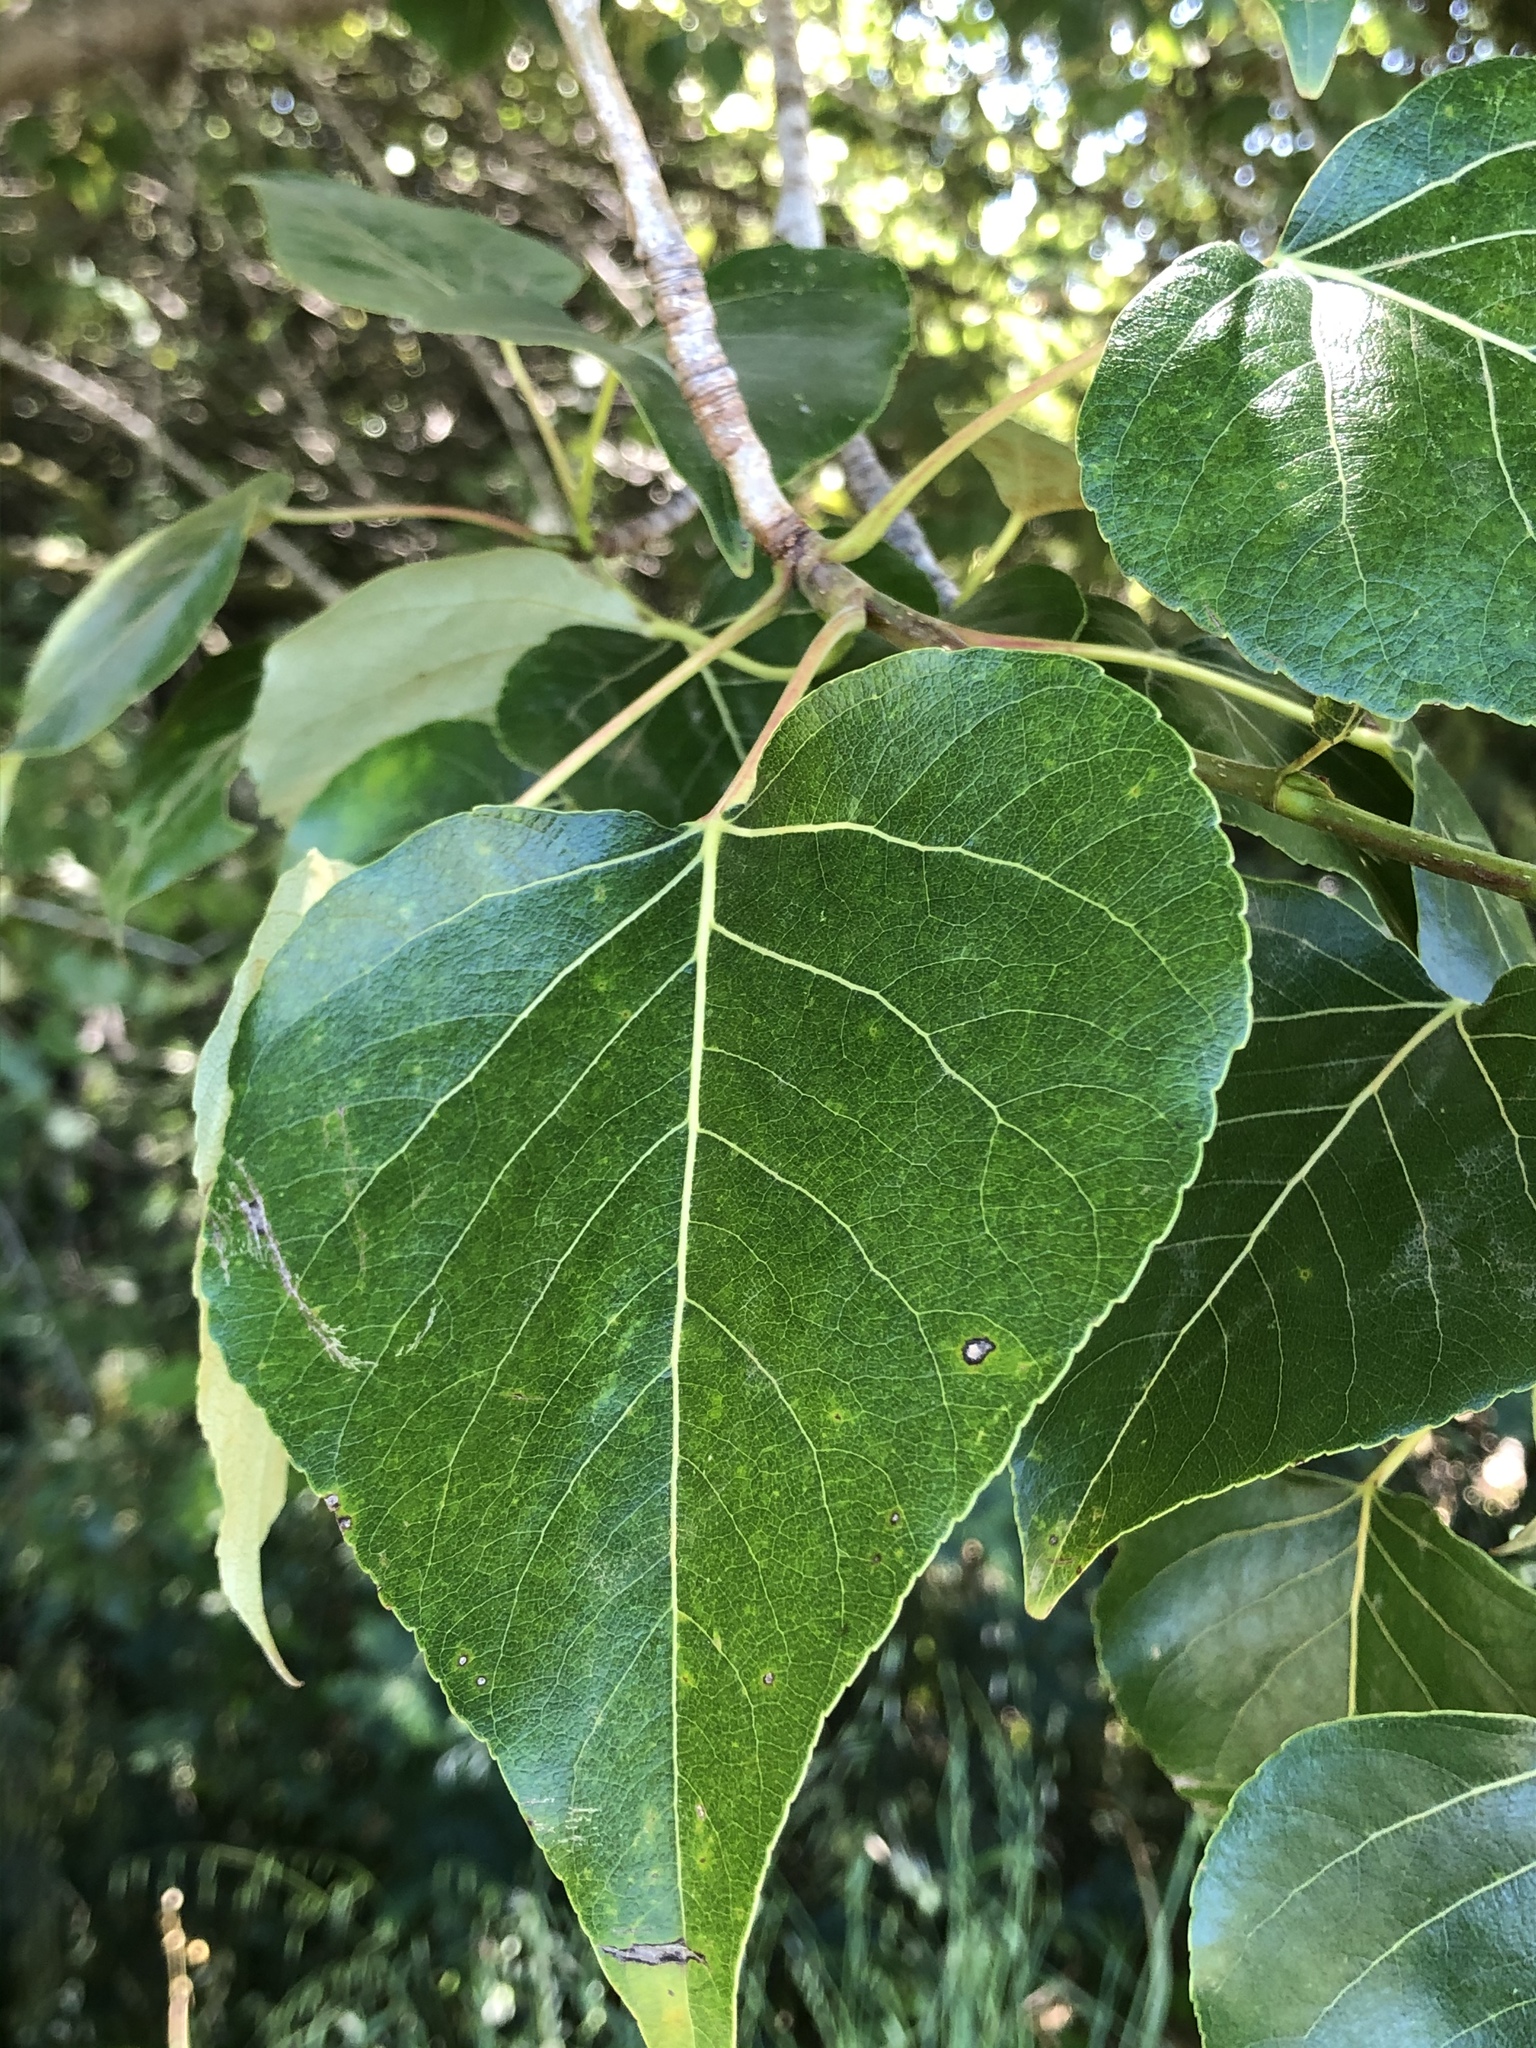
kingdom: Plantae
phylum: Tracheophyta
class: Magnoliopsida
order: Malpighiales
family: Salicaceae
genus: Populus
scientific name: Populus trichocarpa
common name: Black cottonwood
